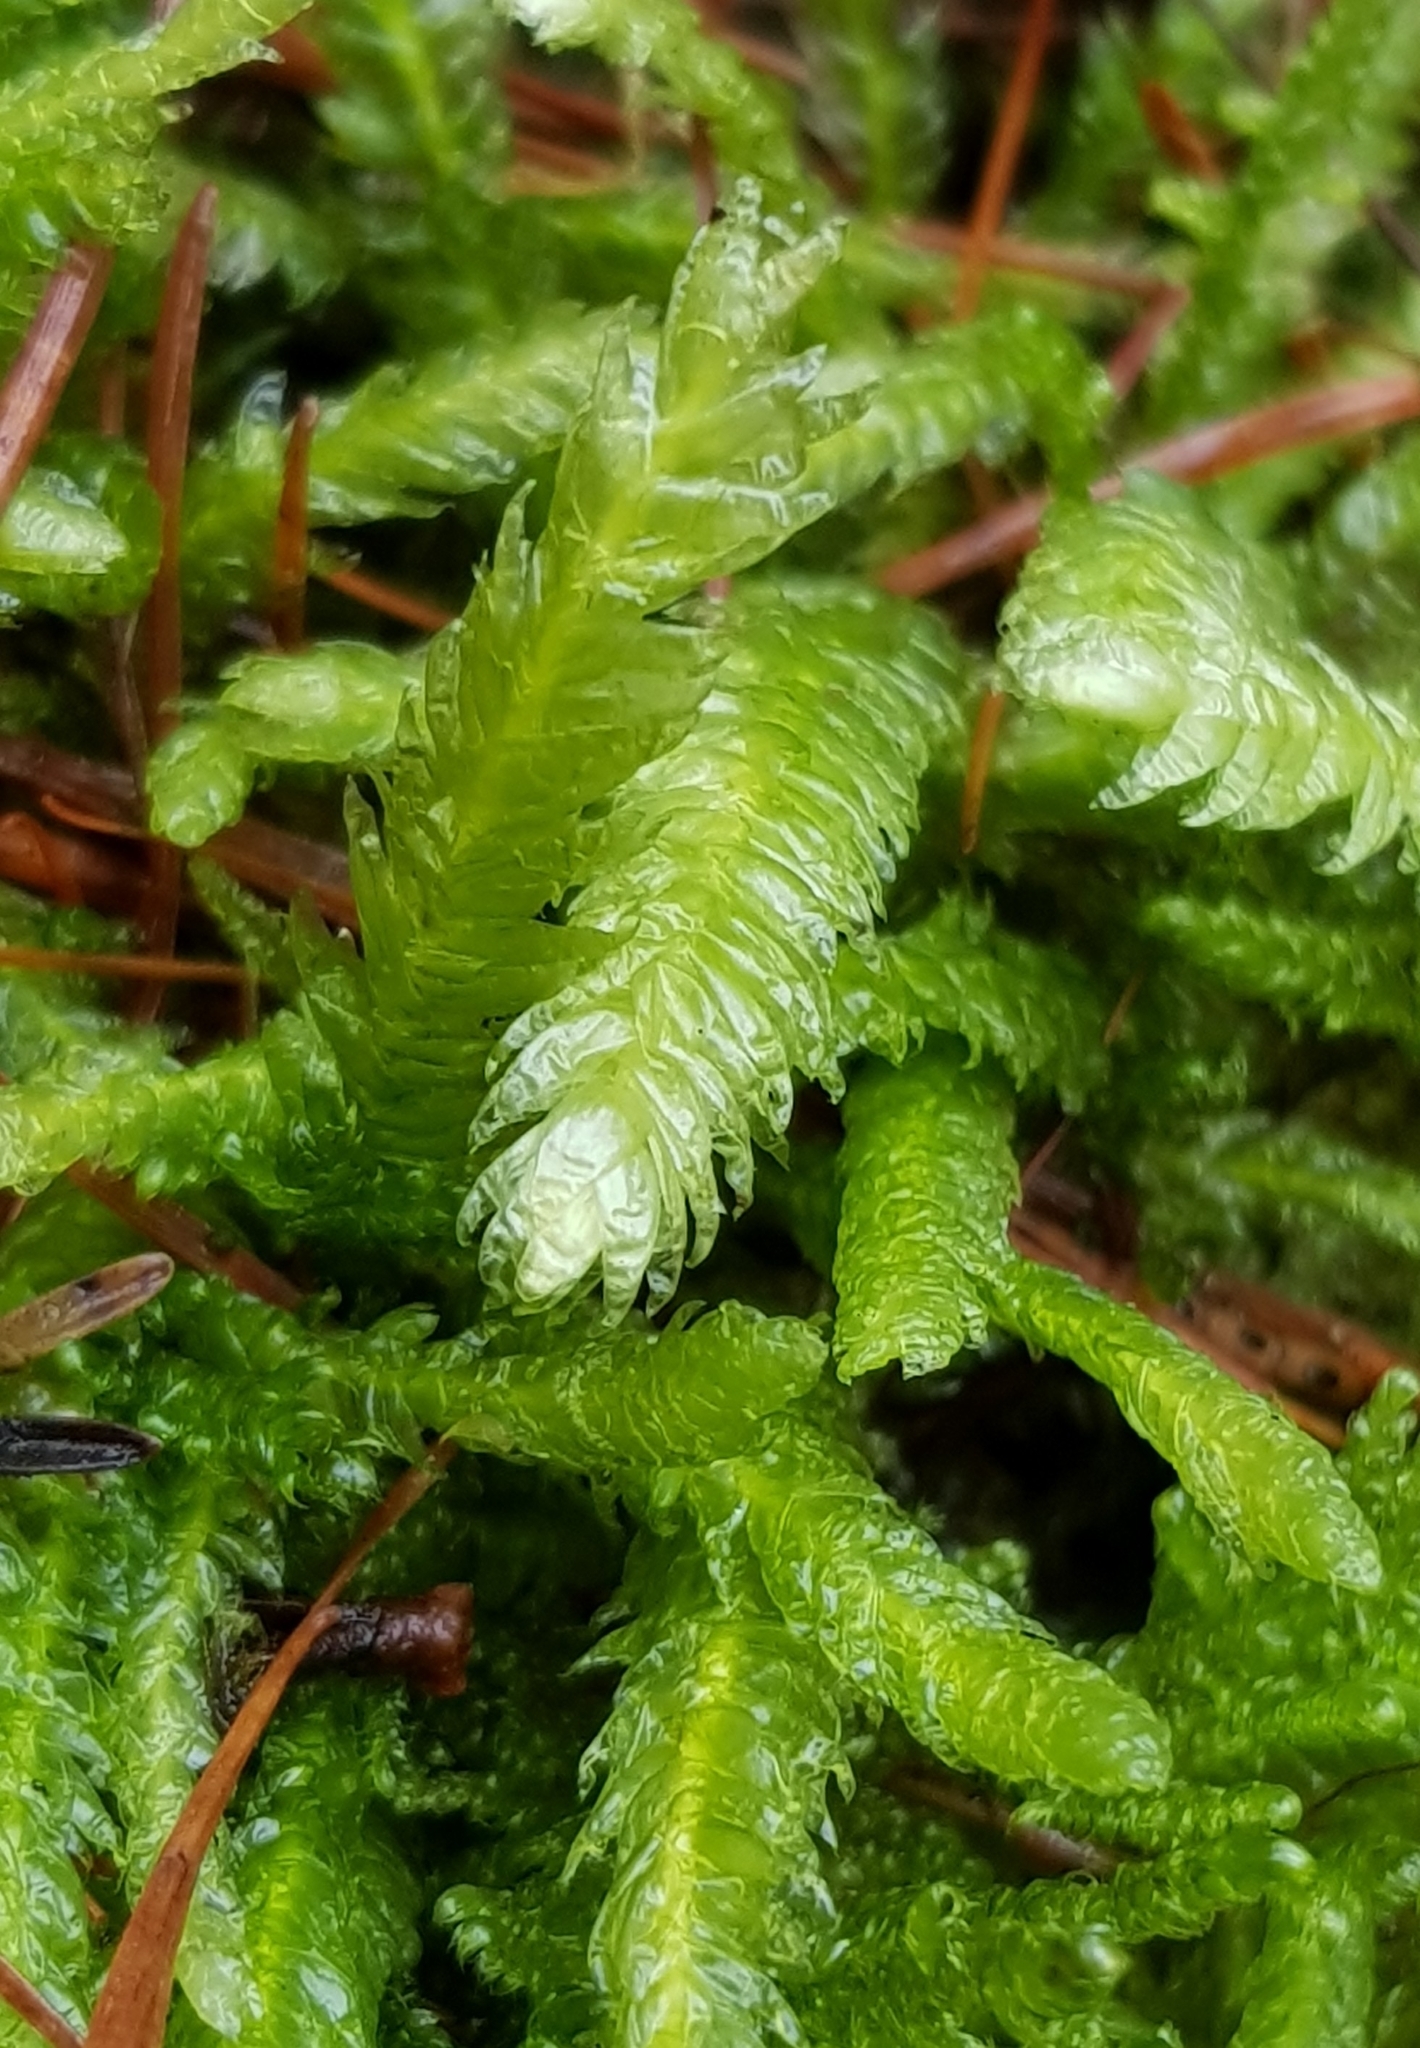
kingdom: Plantae
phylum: Bryophyta
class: Bryopsida
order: Hypnales
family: Plagiotheciaceae
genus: Plagiothecium
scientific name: Plagiothecium undulatum
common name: Waved silk-moss
